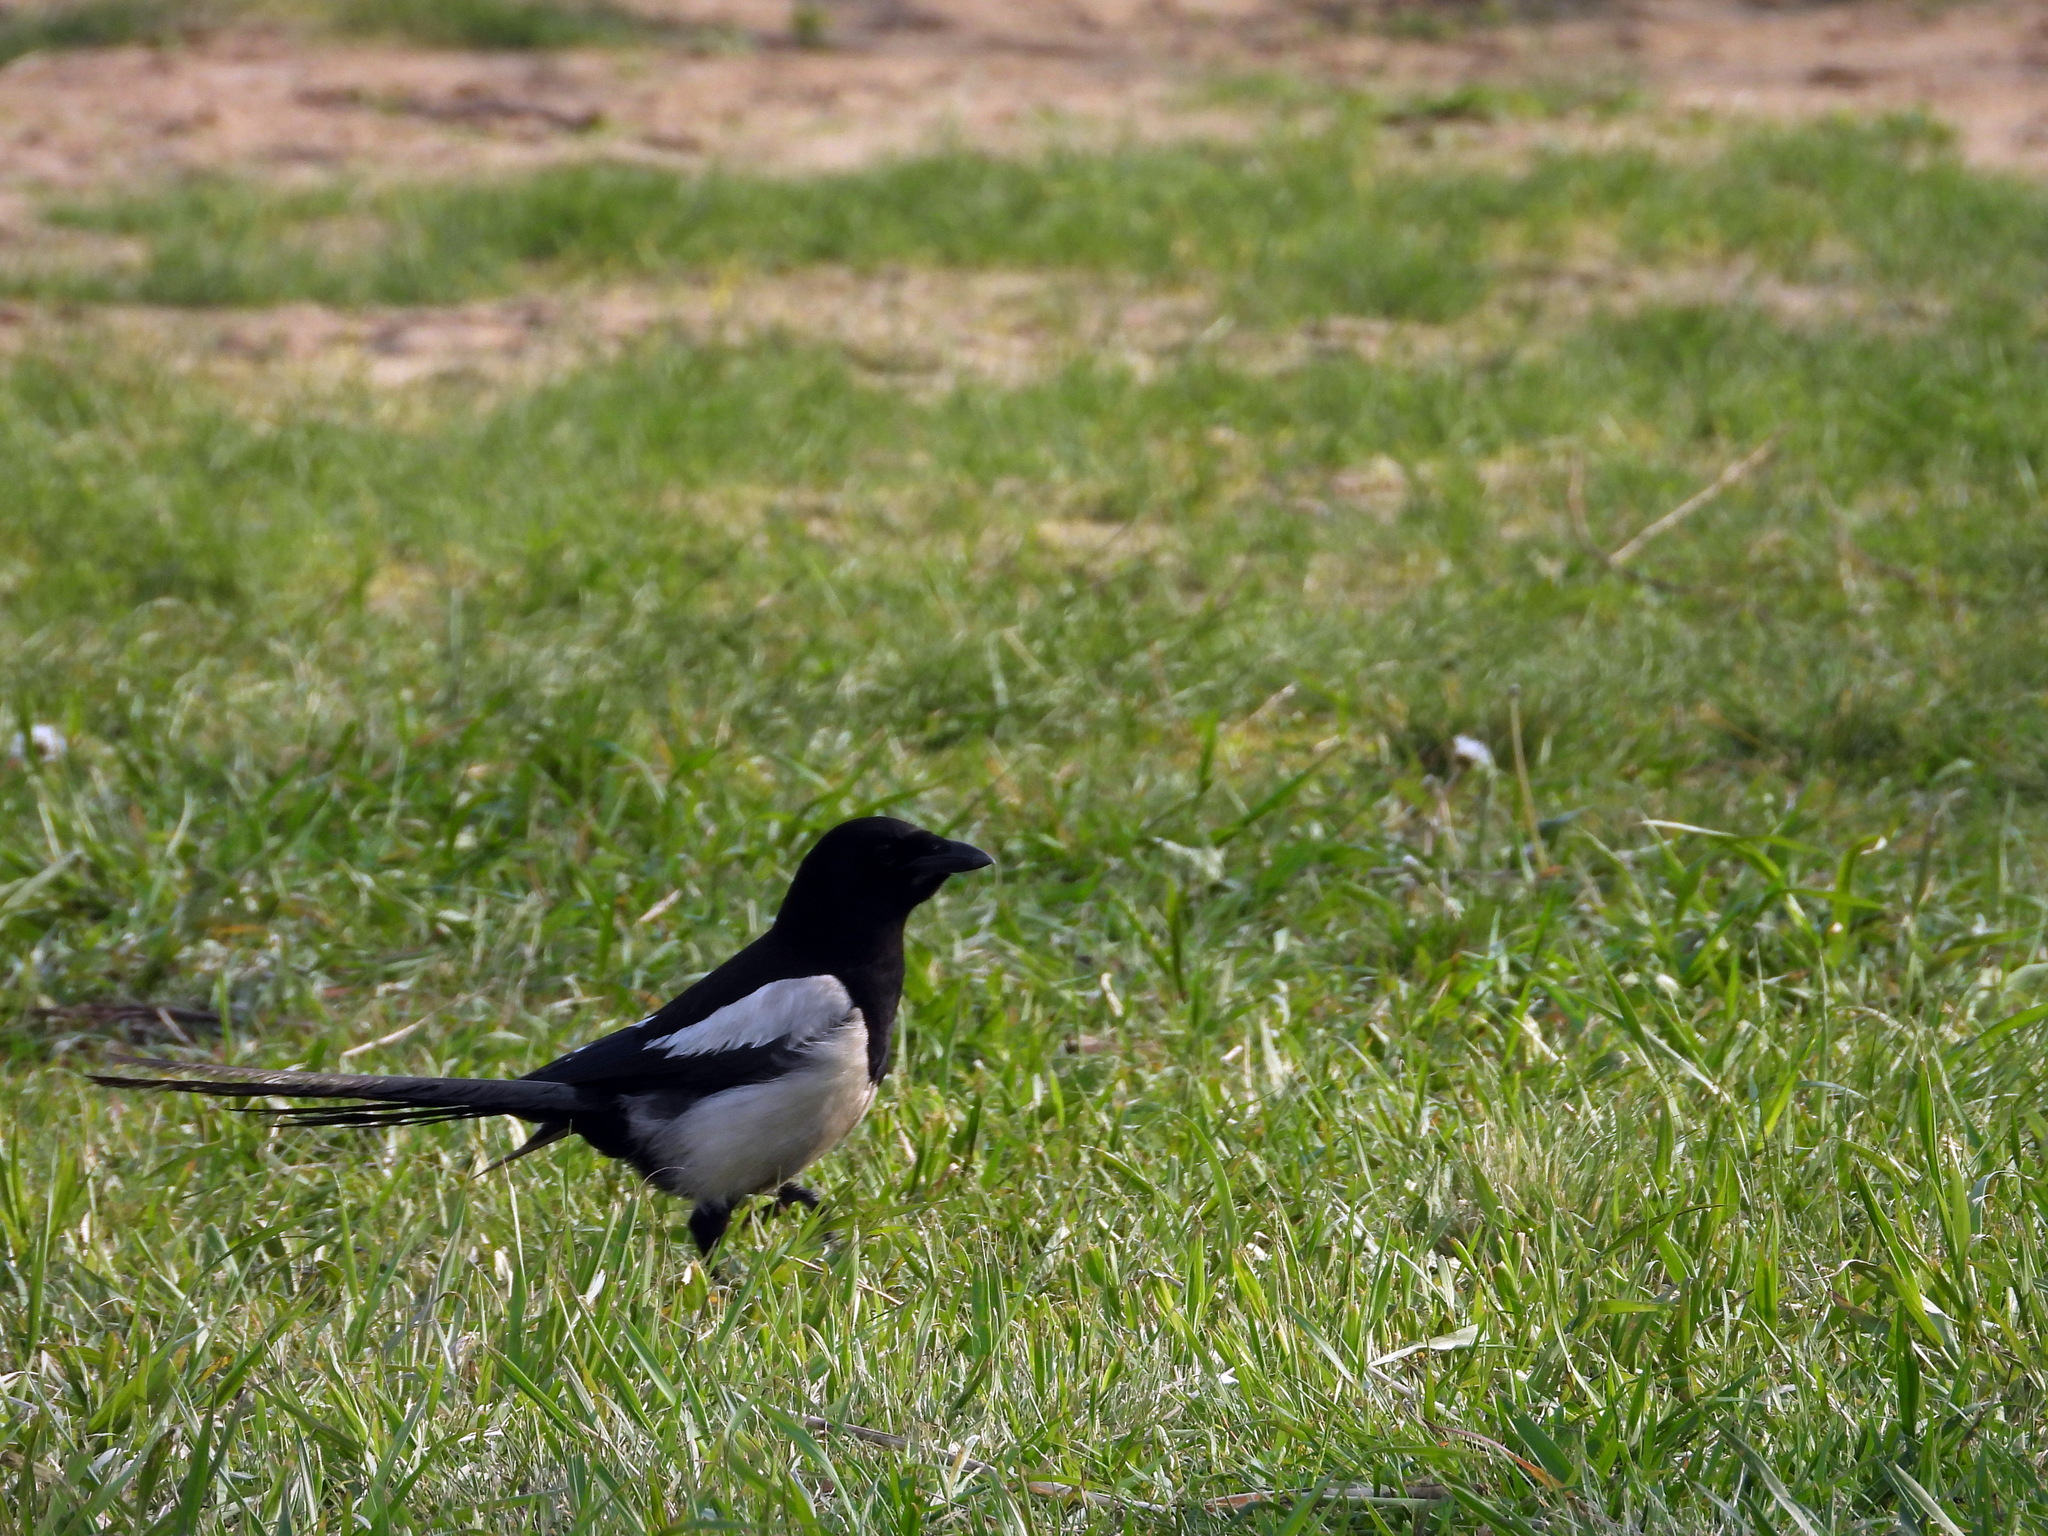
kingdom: Animalia
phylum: Chordata
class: Aves
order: Passeriformes
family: Corvidae
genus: Pica
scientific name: Pica pica
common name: Eurasian magpie
